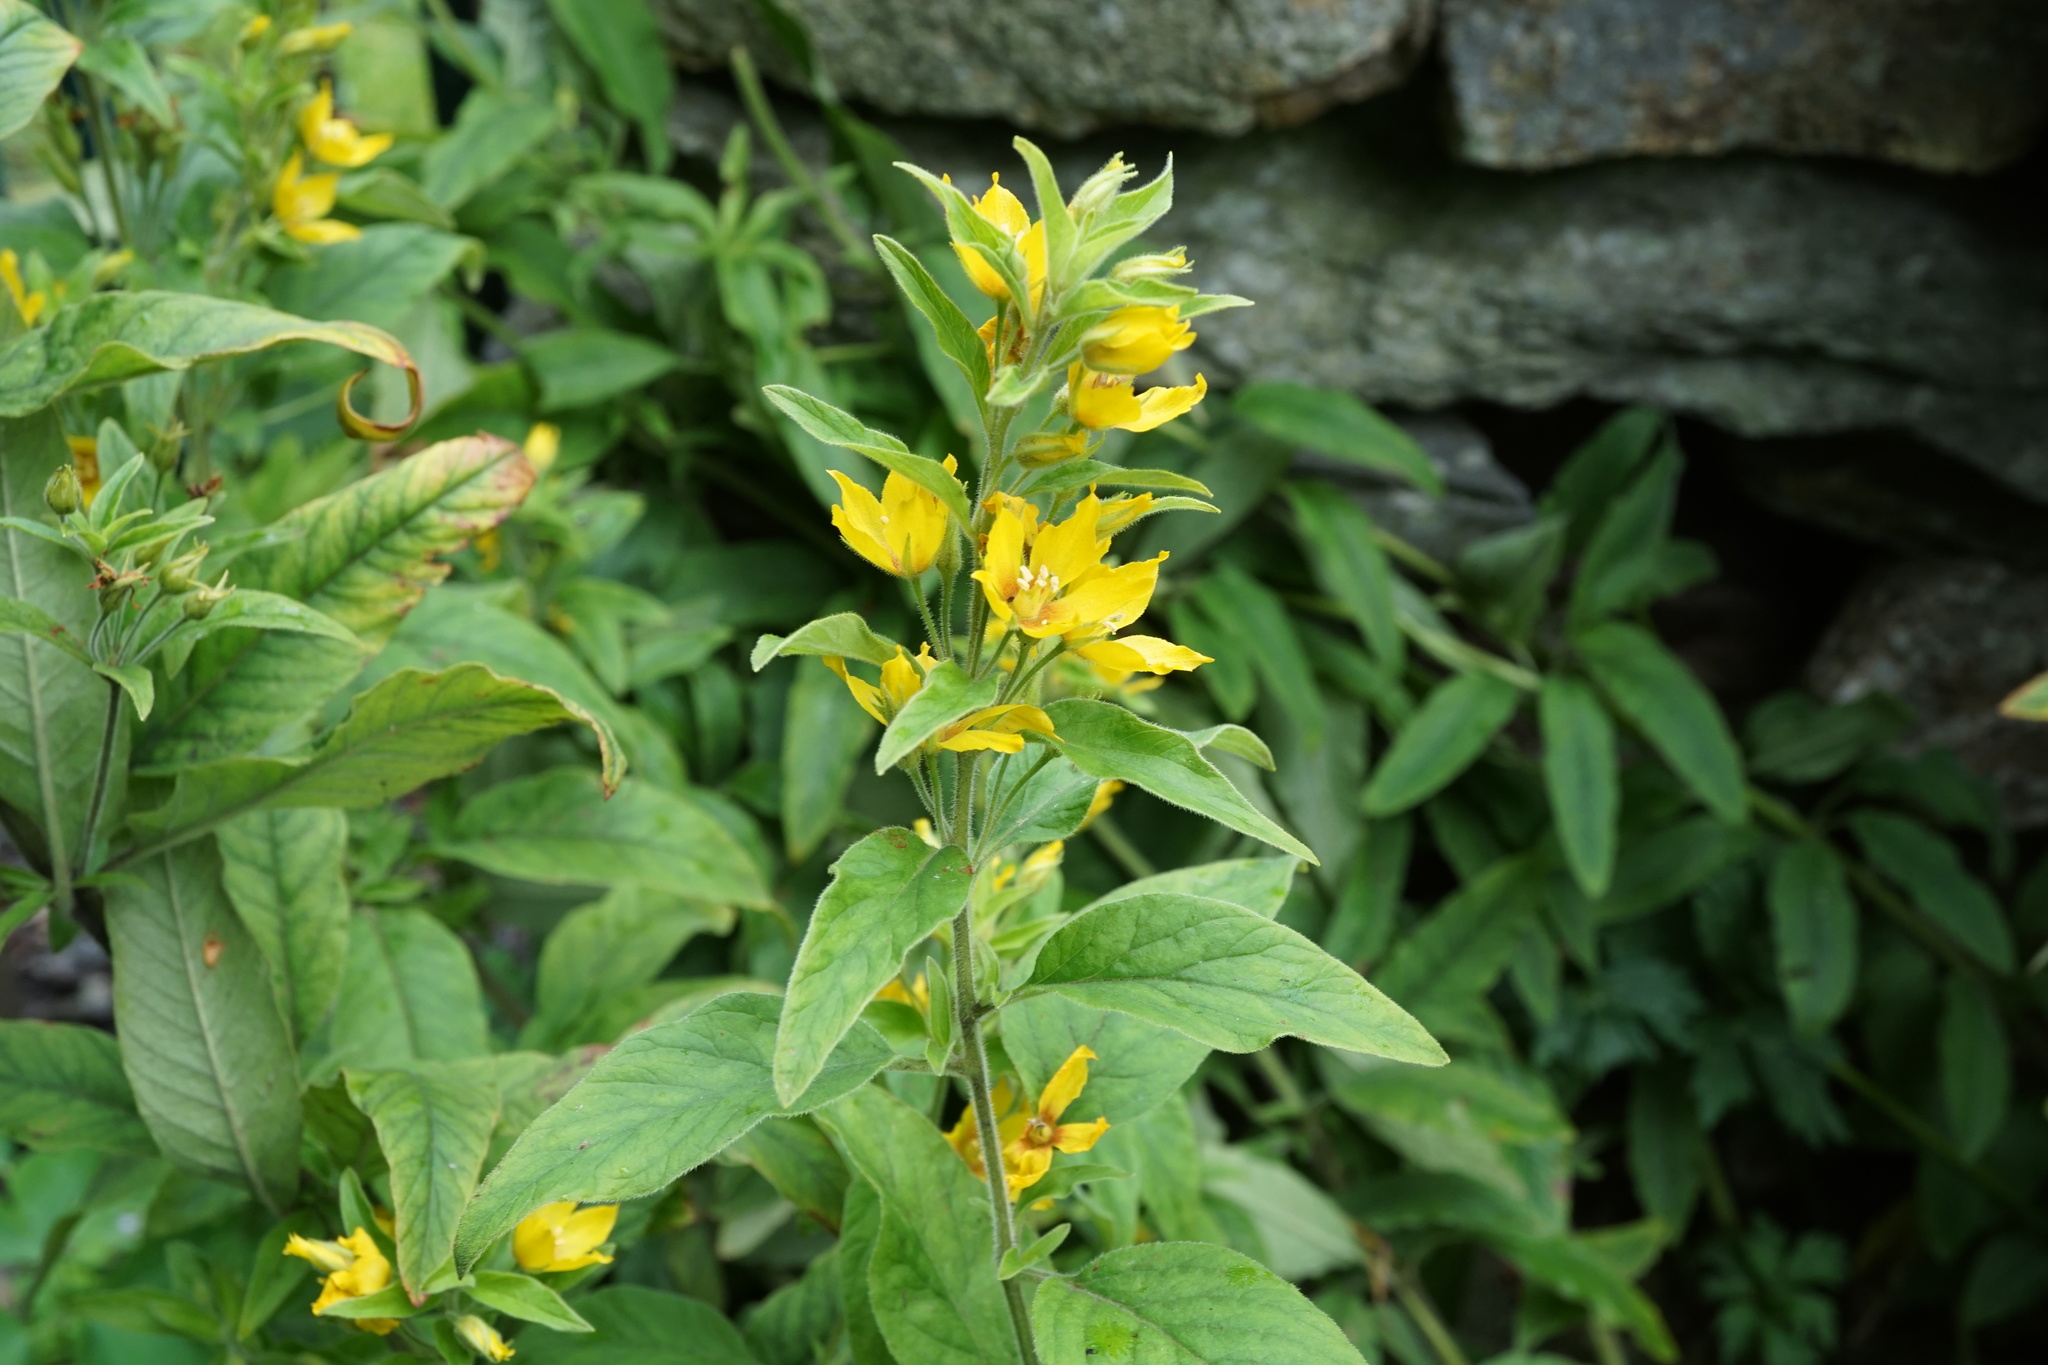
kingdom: Plantae
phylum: Tracheophyta
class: Magnoliopsida
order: Ericales
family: Primulaceae
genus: Lysimachia
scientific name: Lysimachia punctata
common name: Dotted loosestrife
